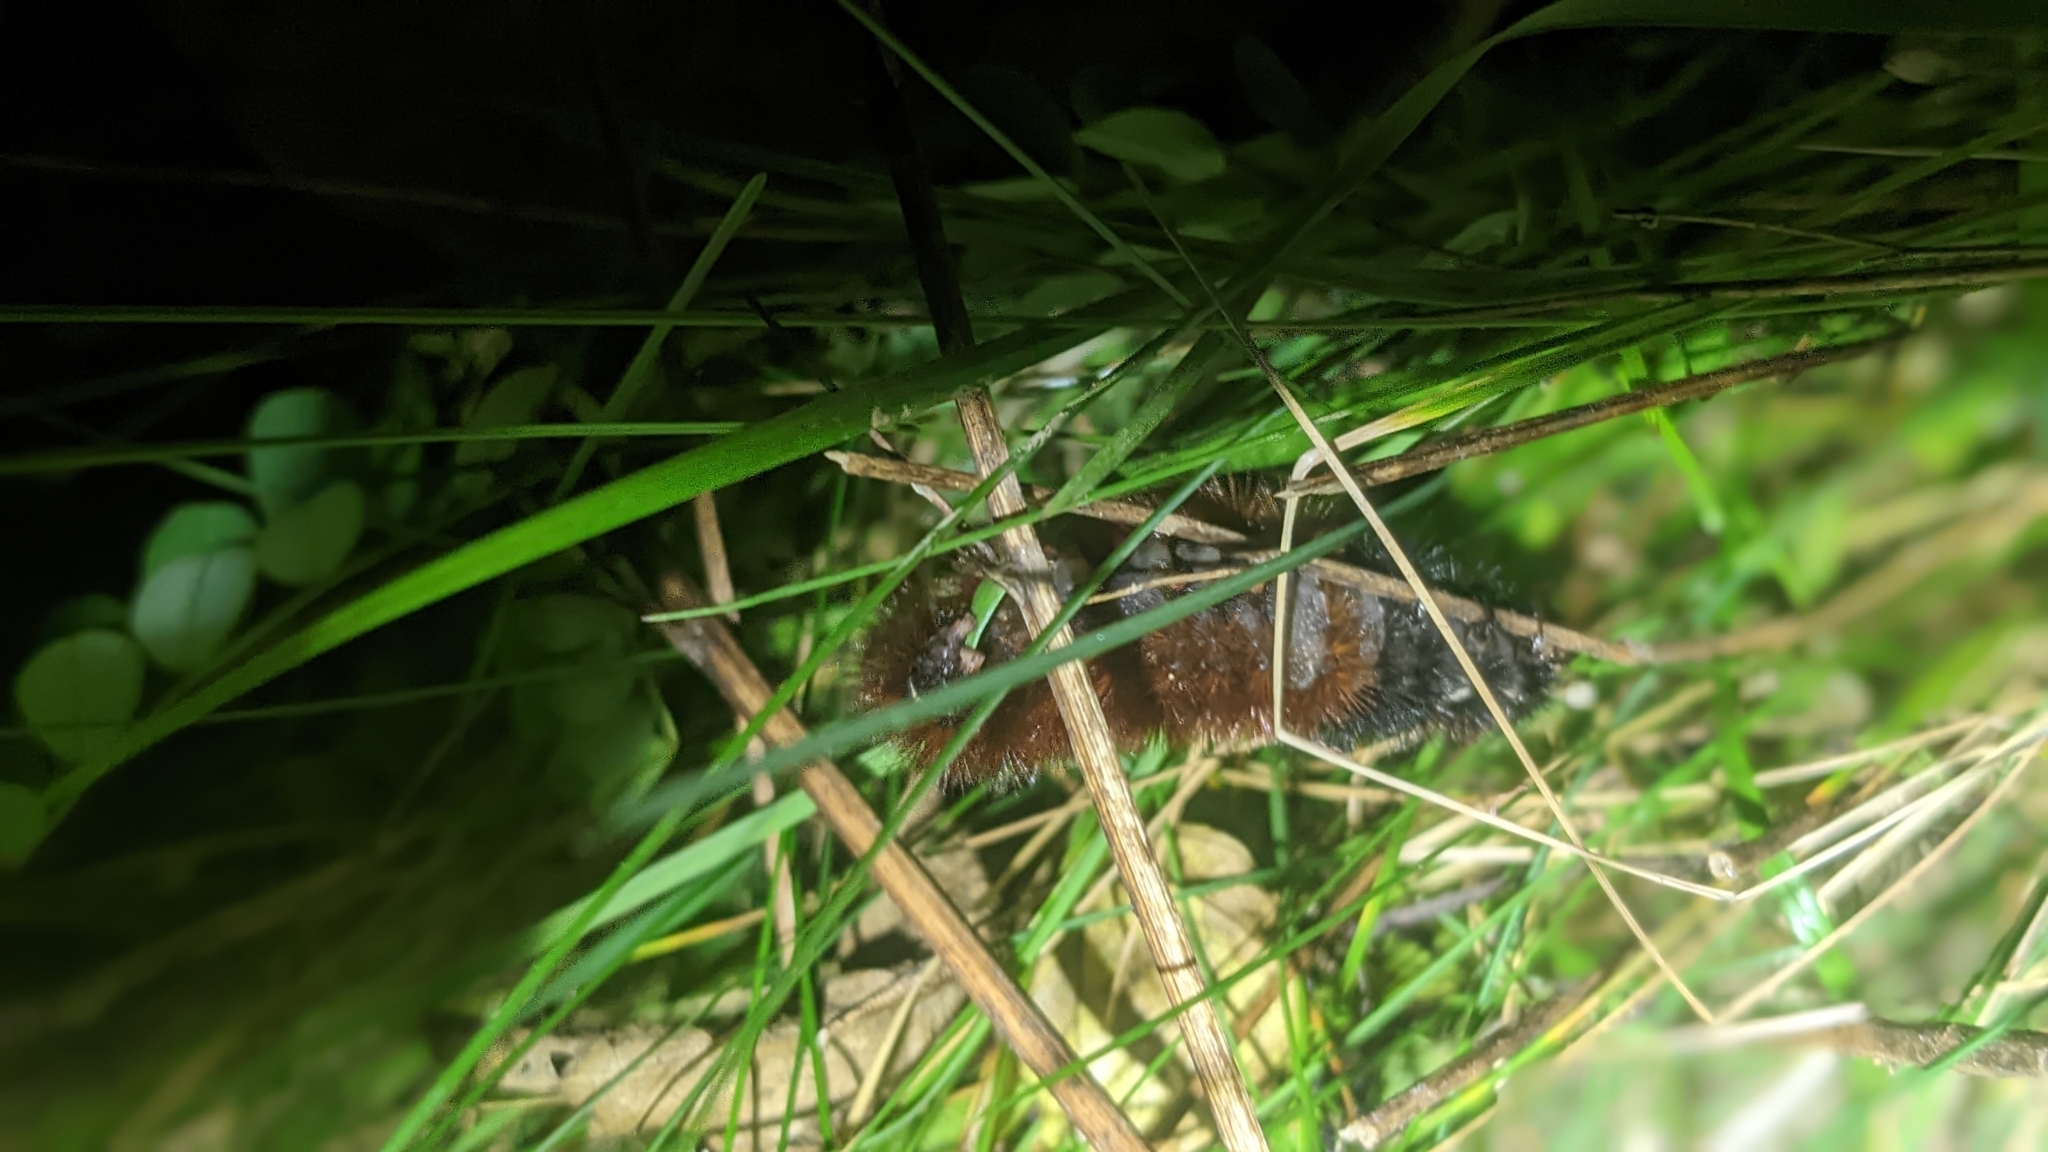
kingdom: Animalia
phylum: Arthropoda
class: Insecta
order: Lepidoptera
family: Erebidae
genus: Pyrrharctia
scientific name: Pyrrharctia isabella
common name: Isabella tiger moth
